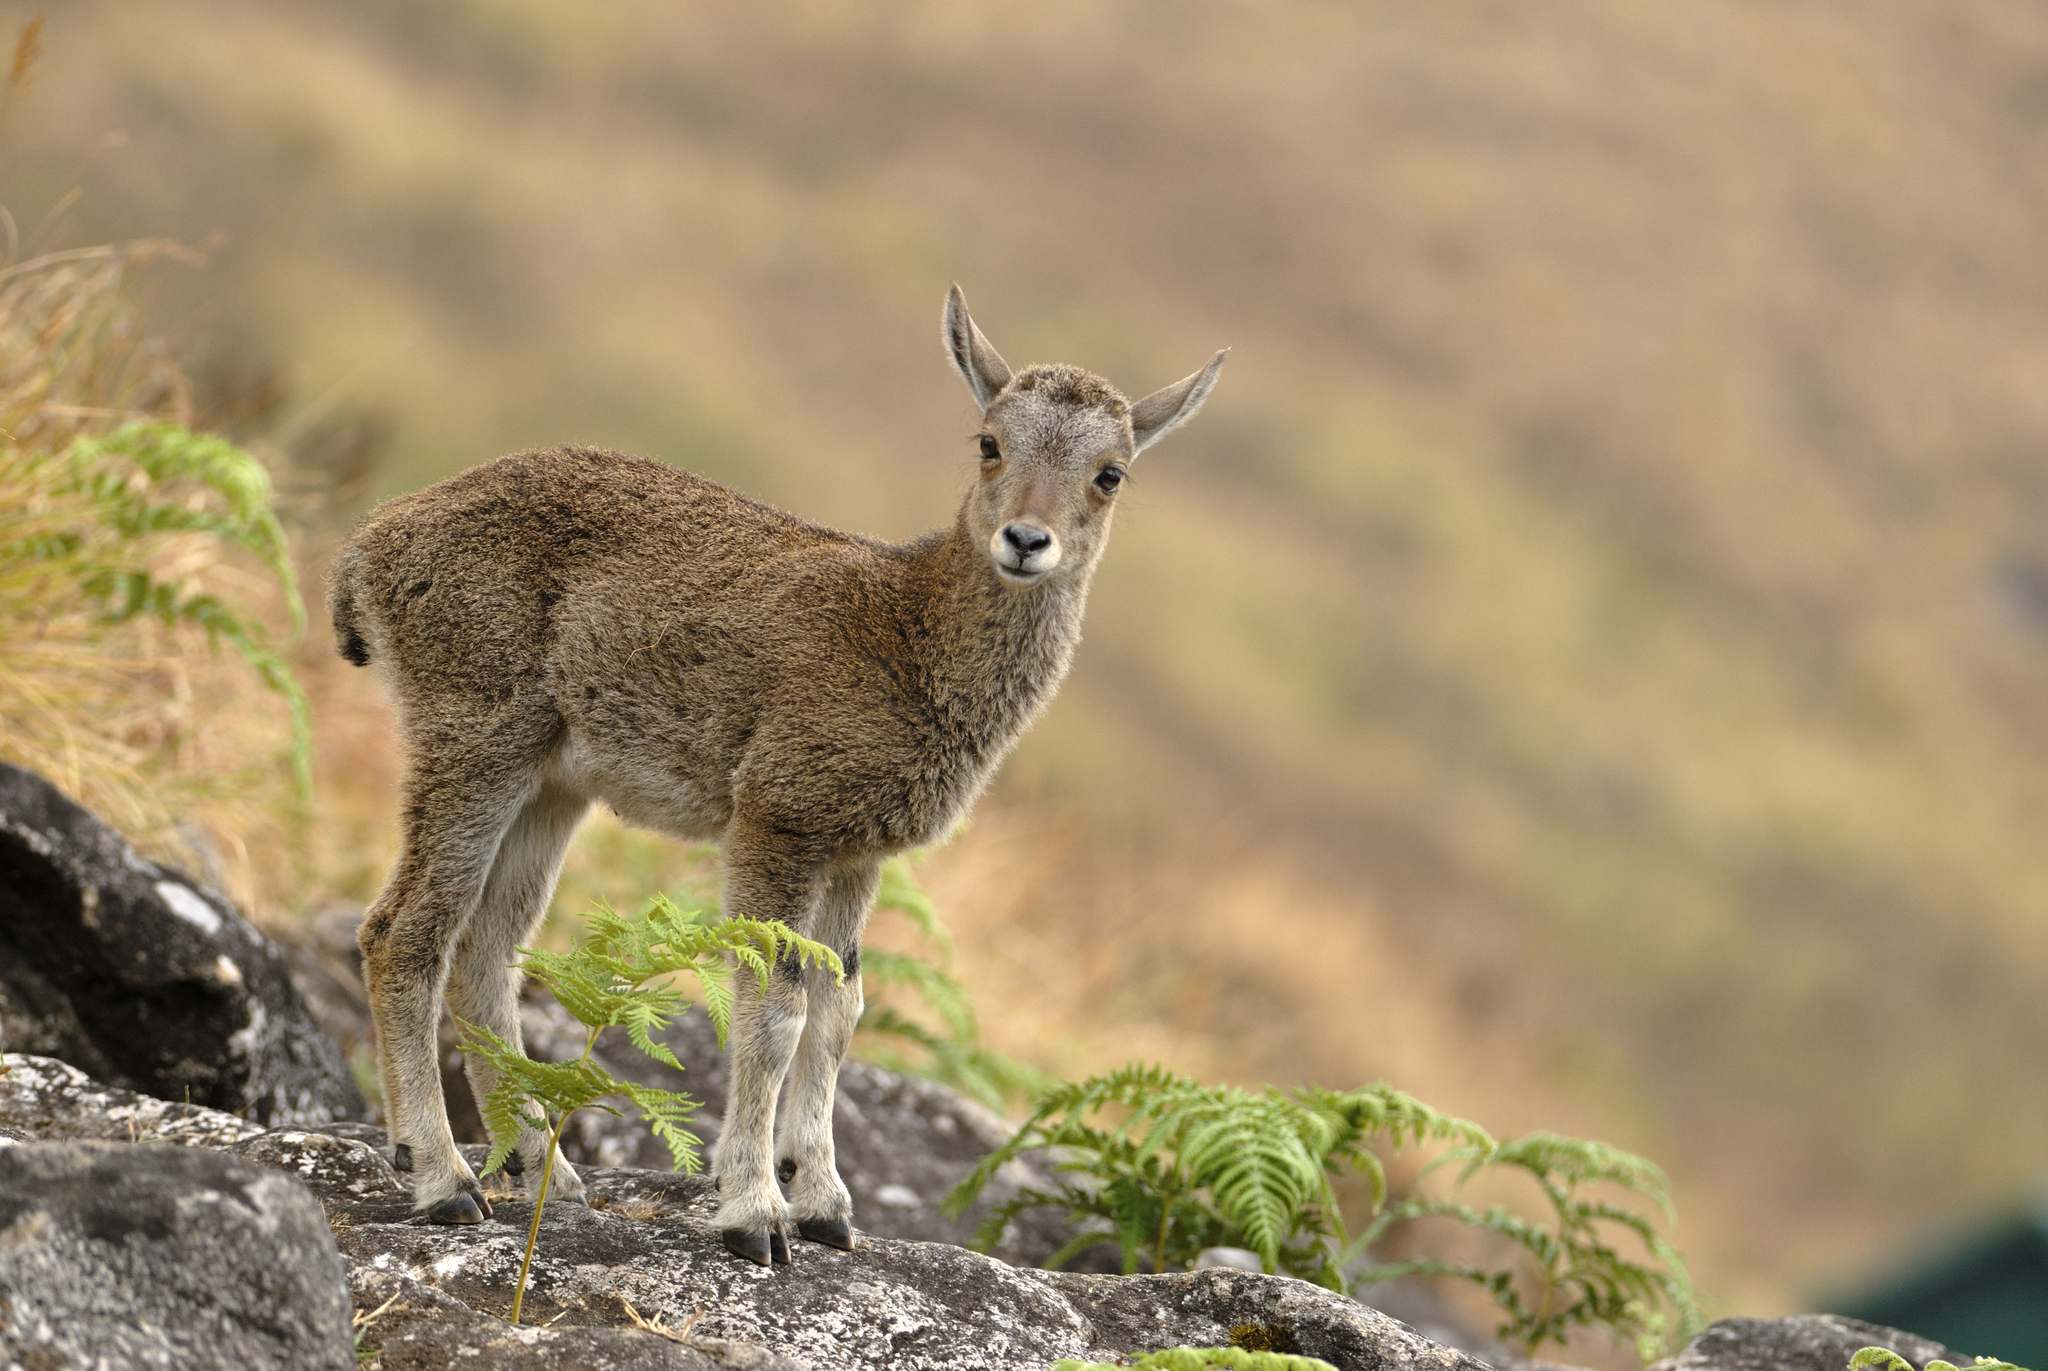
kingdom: Animalia
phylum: Chordata
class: Mammalia
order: Artiodactyla
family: Bovidae
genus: Hemitragus
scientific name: Hemitragus hylocrius
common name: Nilgiri tahr
